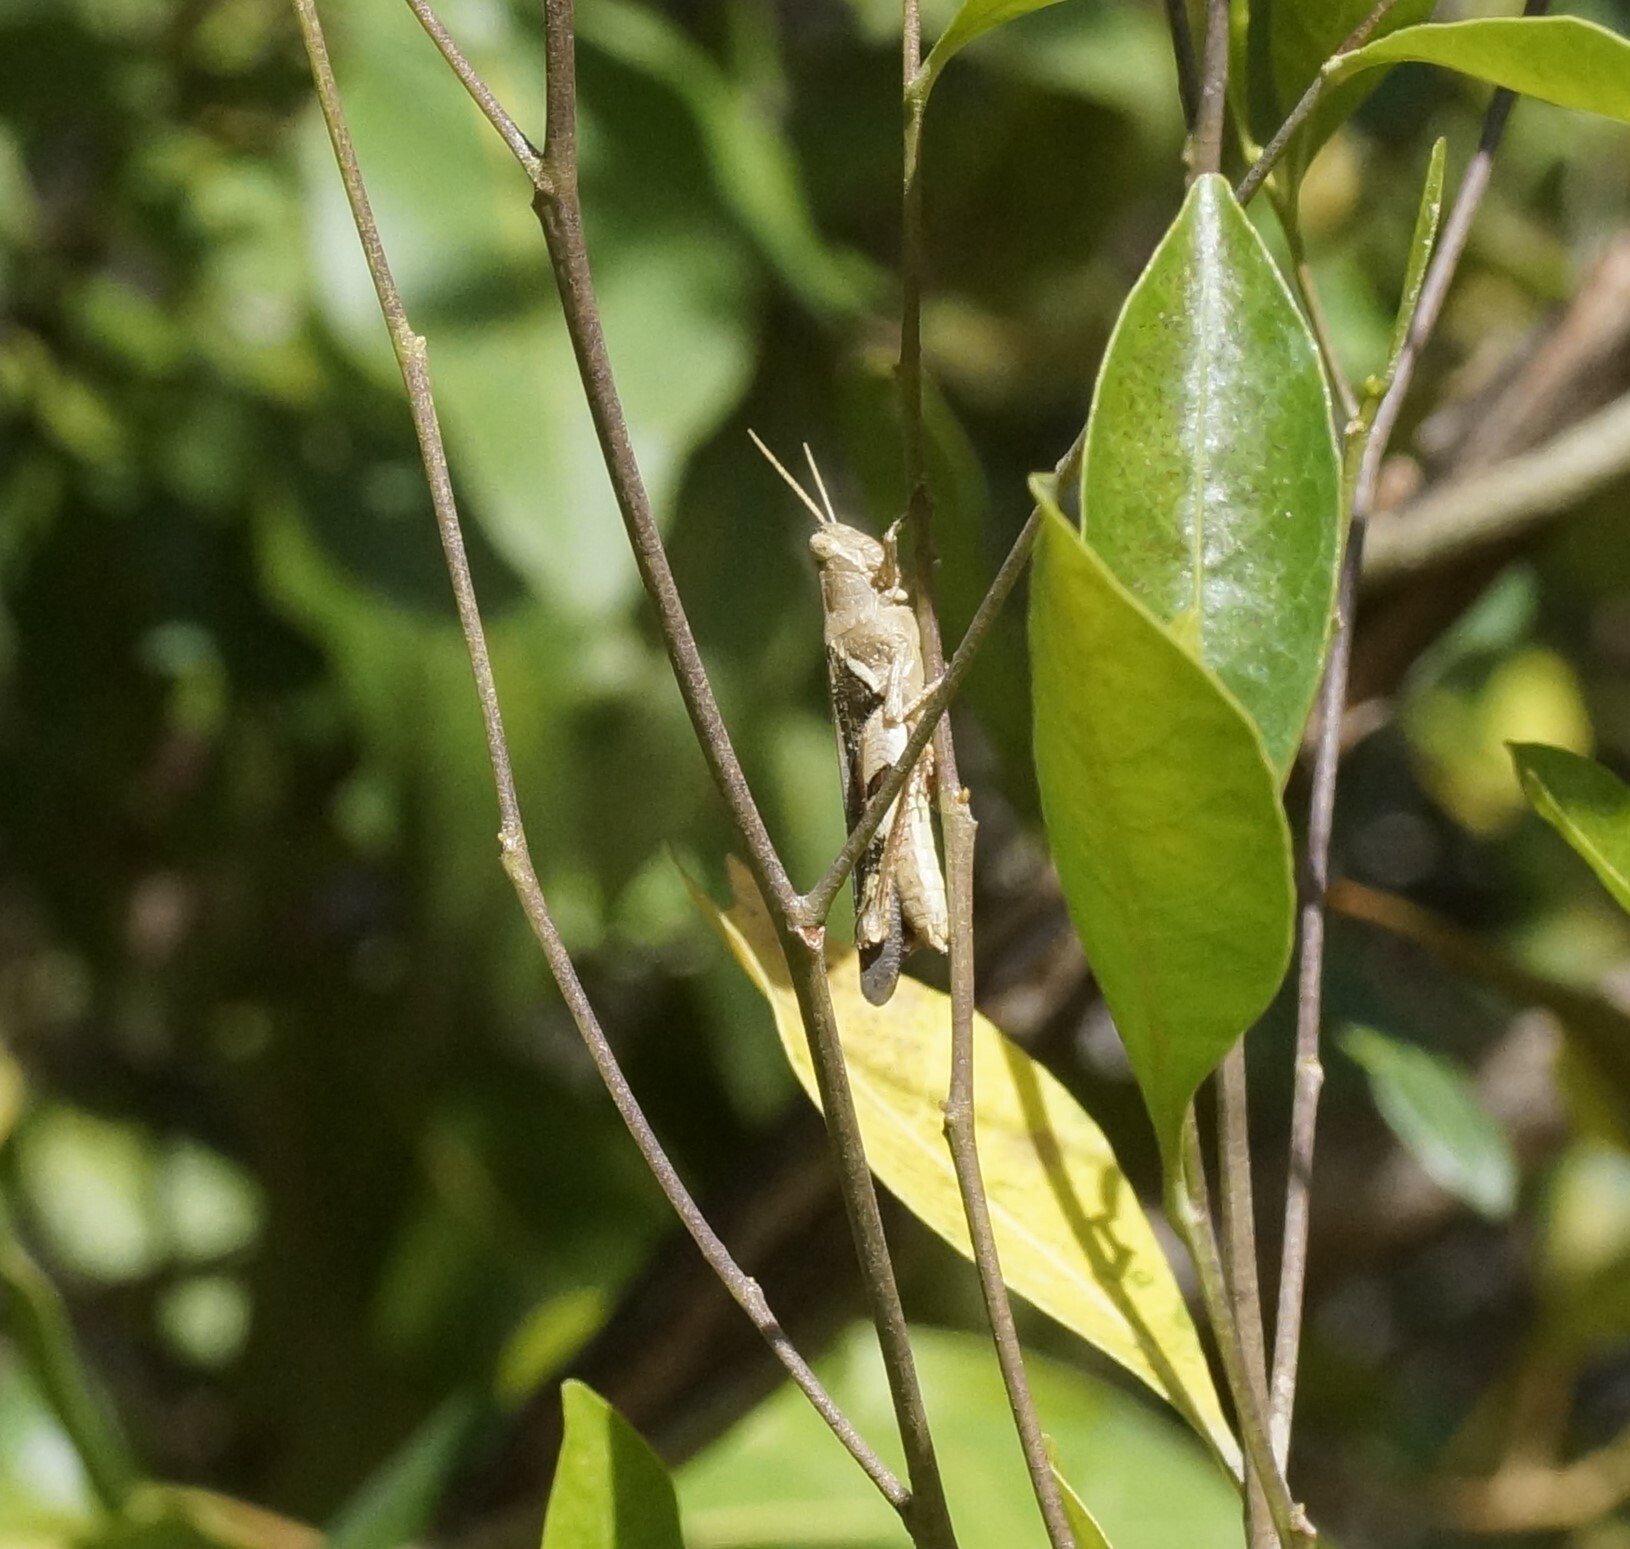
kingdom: Animalia
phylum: Arthropoda
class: Insecta
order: Orthoptera
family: Acrididae
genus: Stenocatantops
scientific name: Stenocatantops angustifrons
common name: Common tropical sharptail
